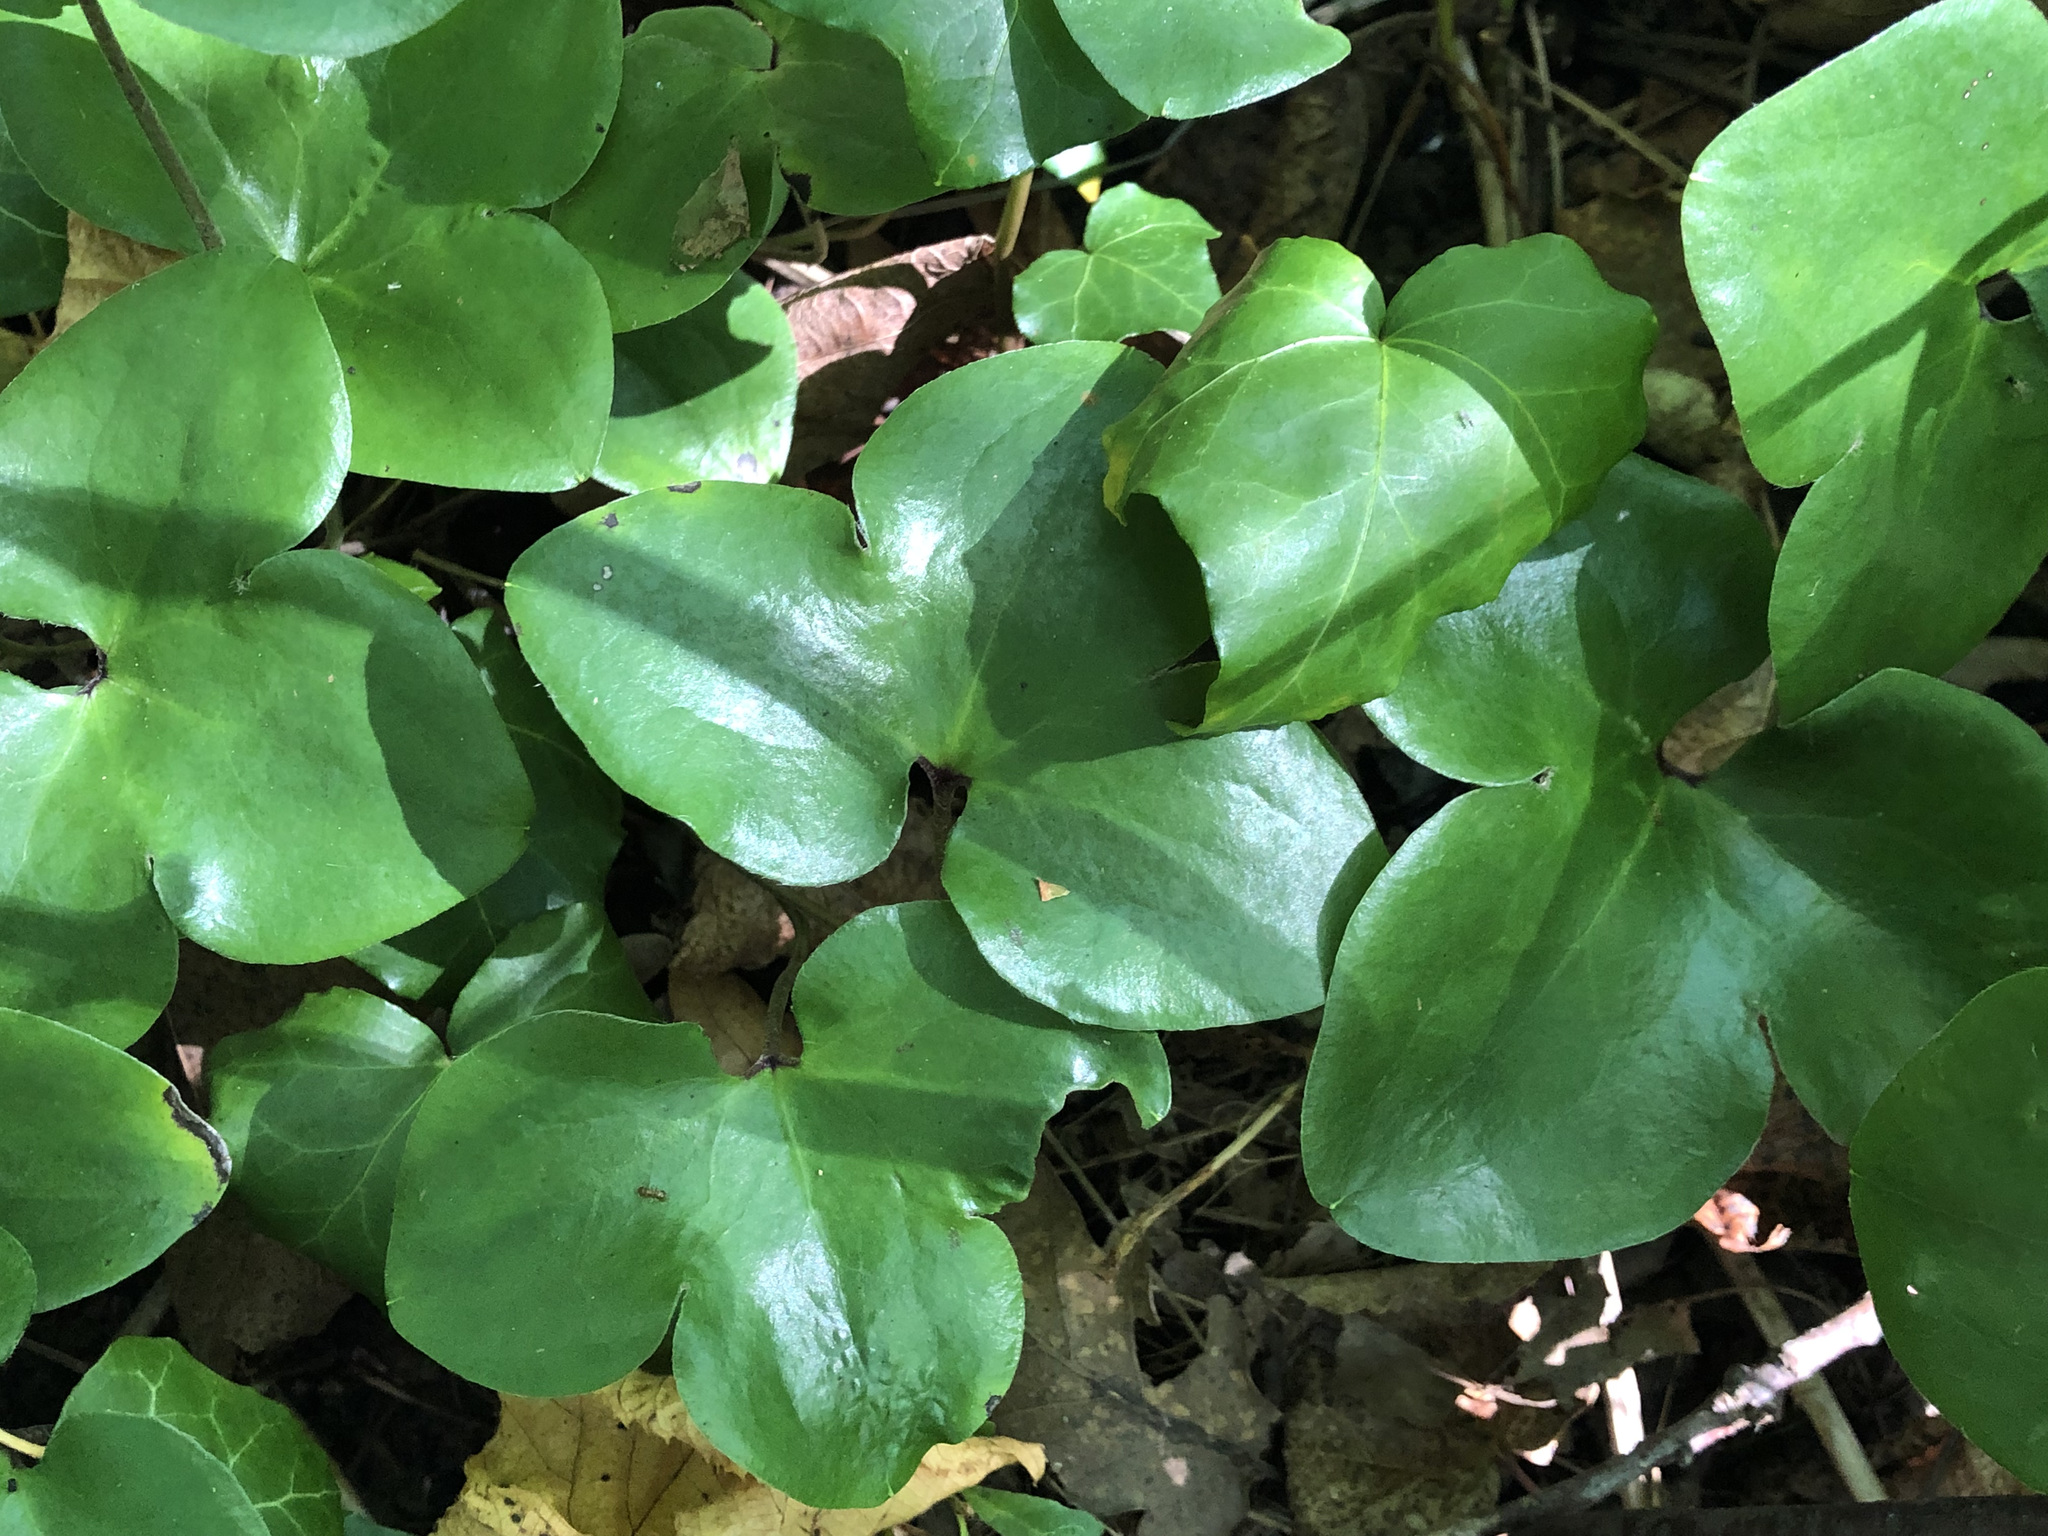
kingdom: Plantae
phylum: Tracheophyta
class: Magnoliopsida
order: Ranunculales
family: Ranunculaceae
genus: Hepatica
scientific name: Hepatica nobilis
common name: Liverleaf
